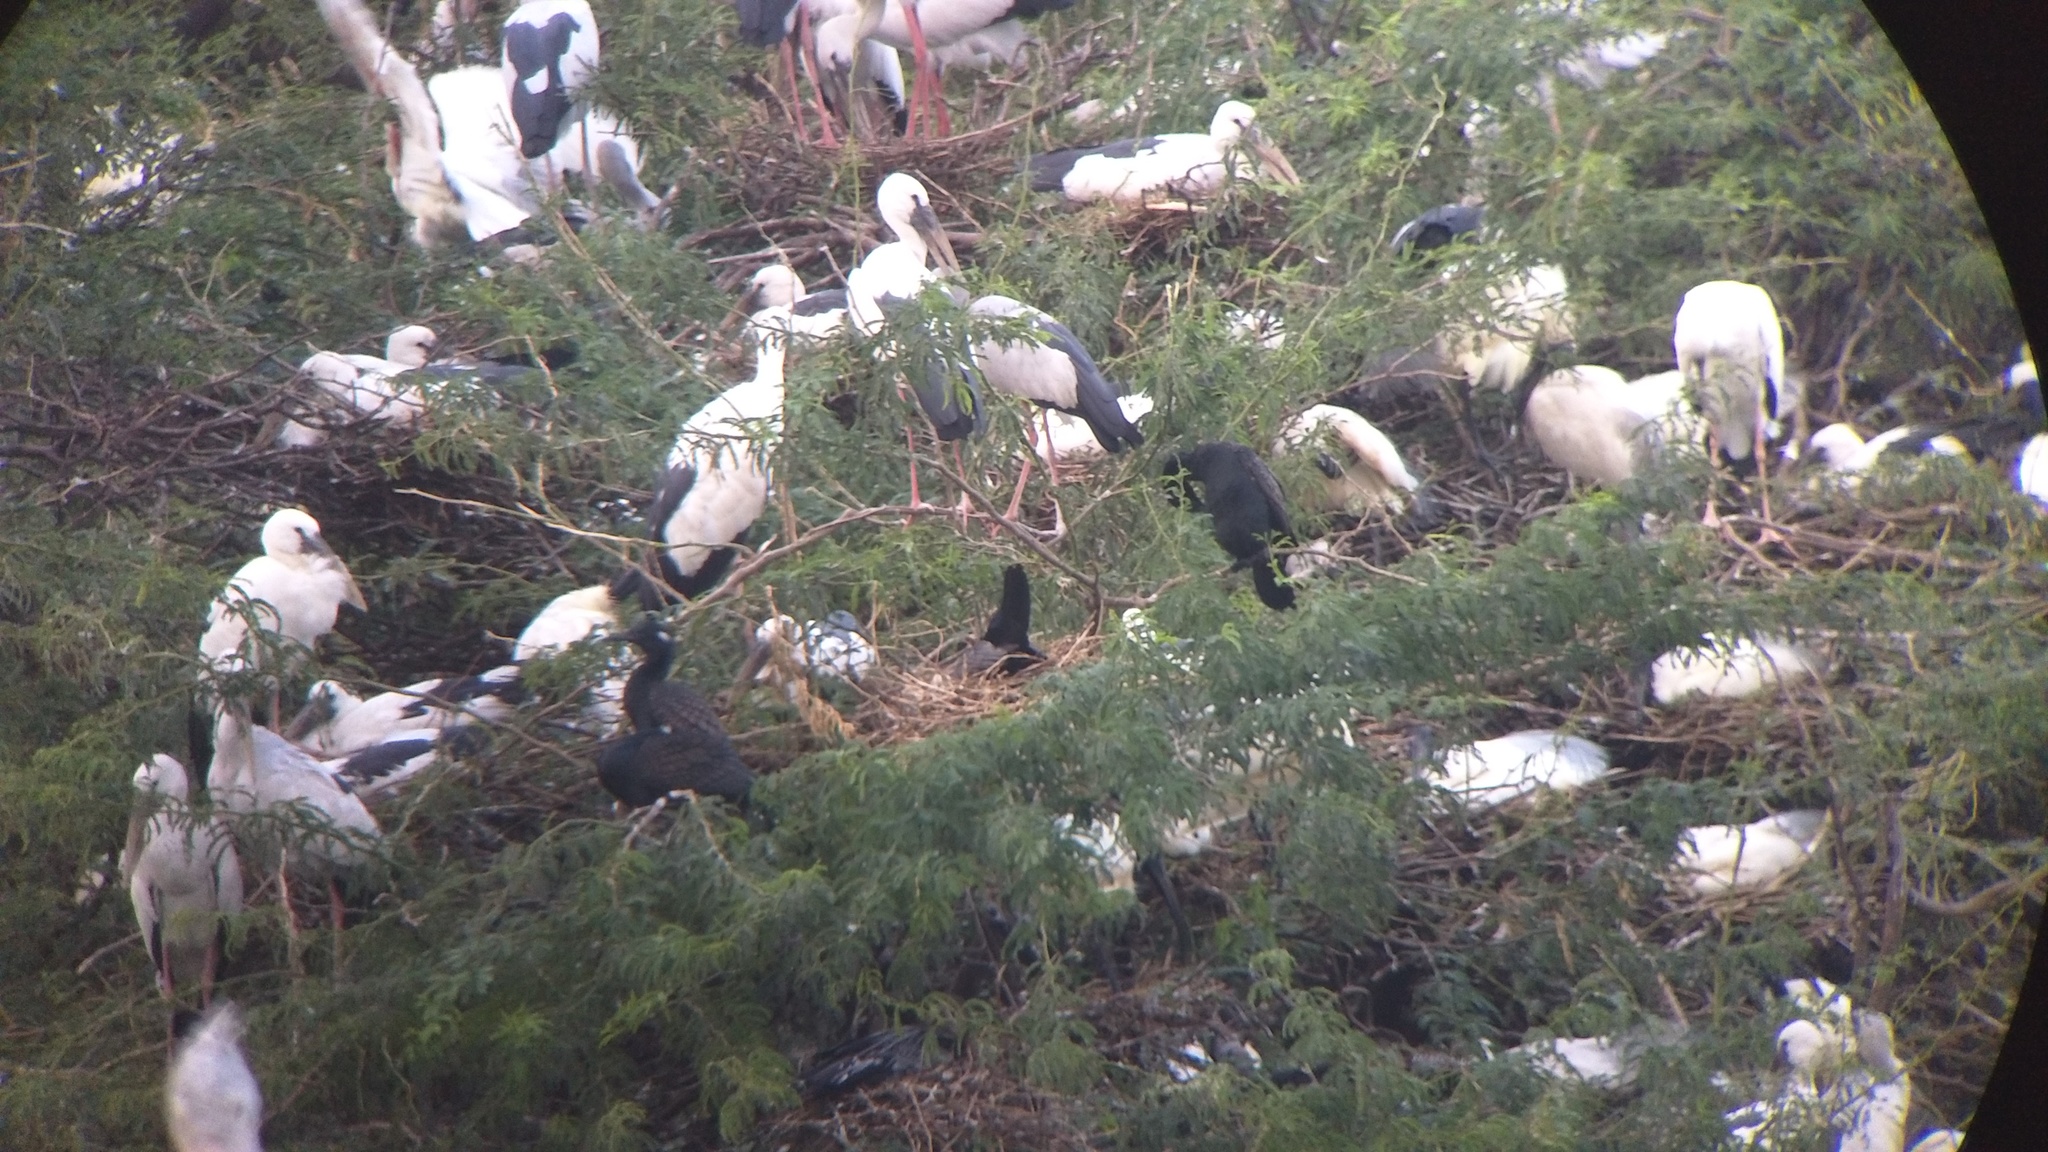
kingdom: Animalia
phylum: Chordata
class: Aves
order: Suliformes
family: Phalacrocoracidae
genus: Phalacrocorax
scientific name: Phalacrocorax fuscicollis
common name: Indian cormorant
